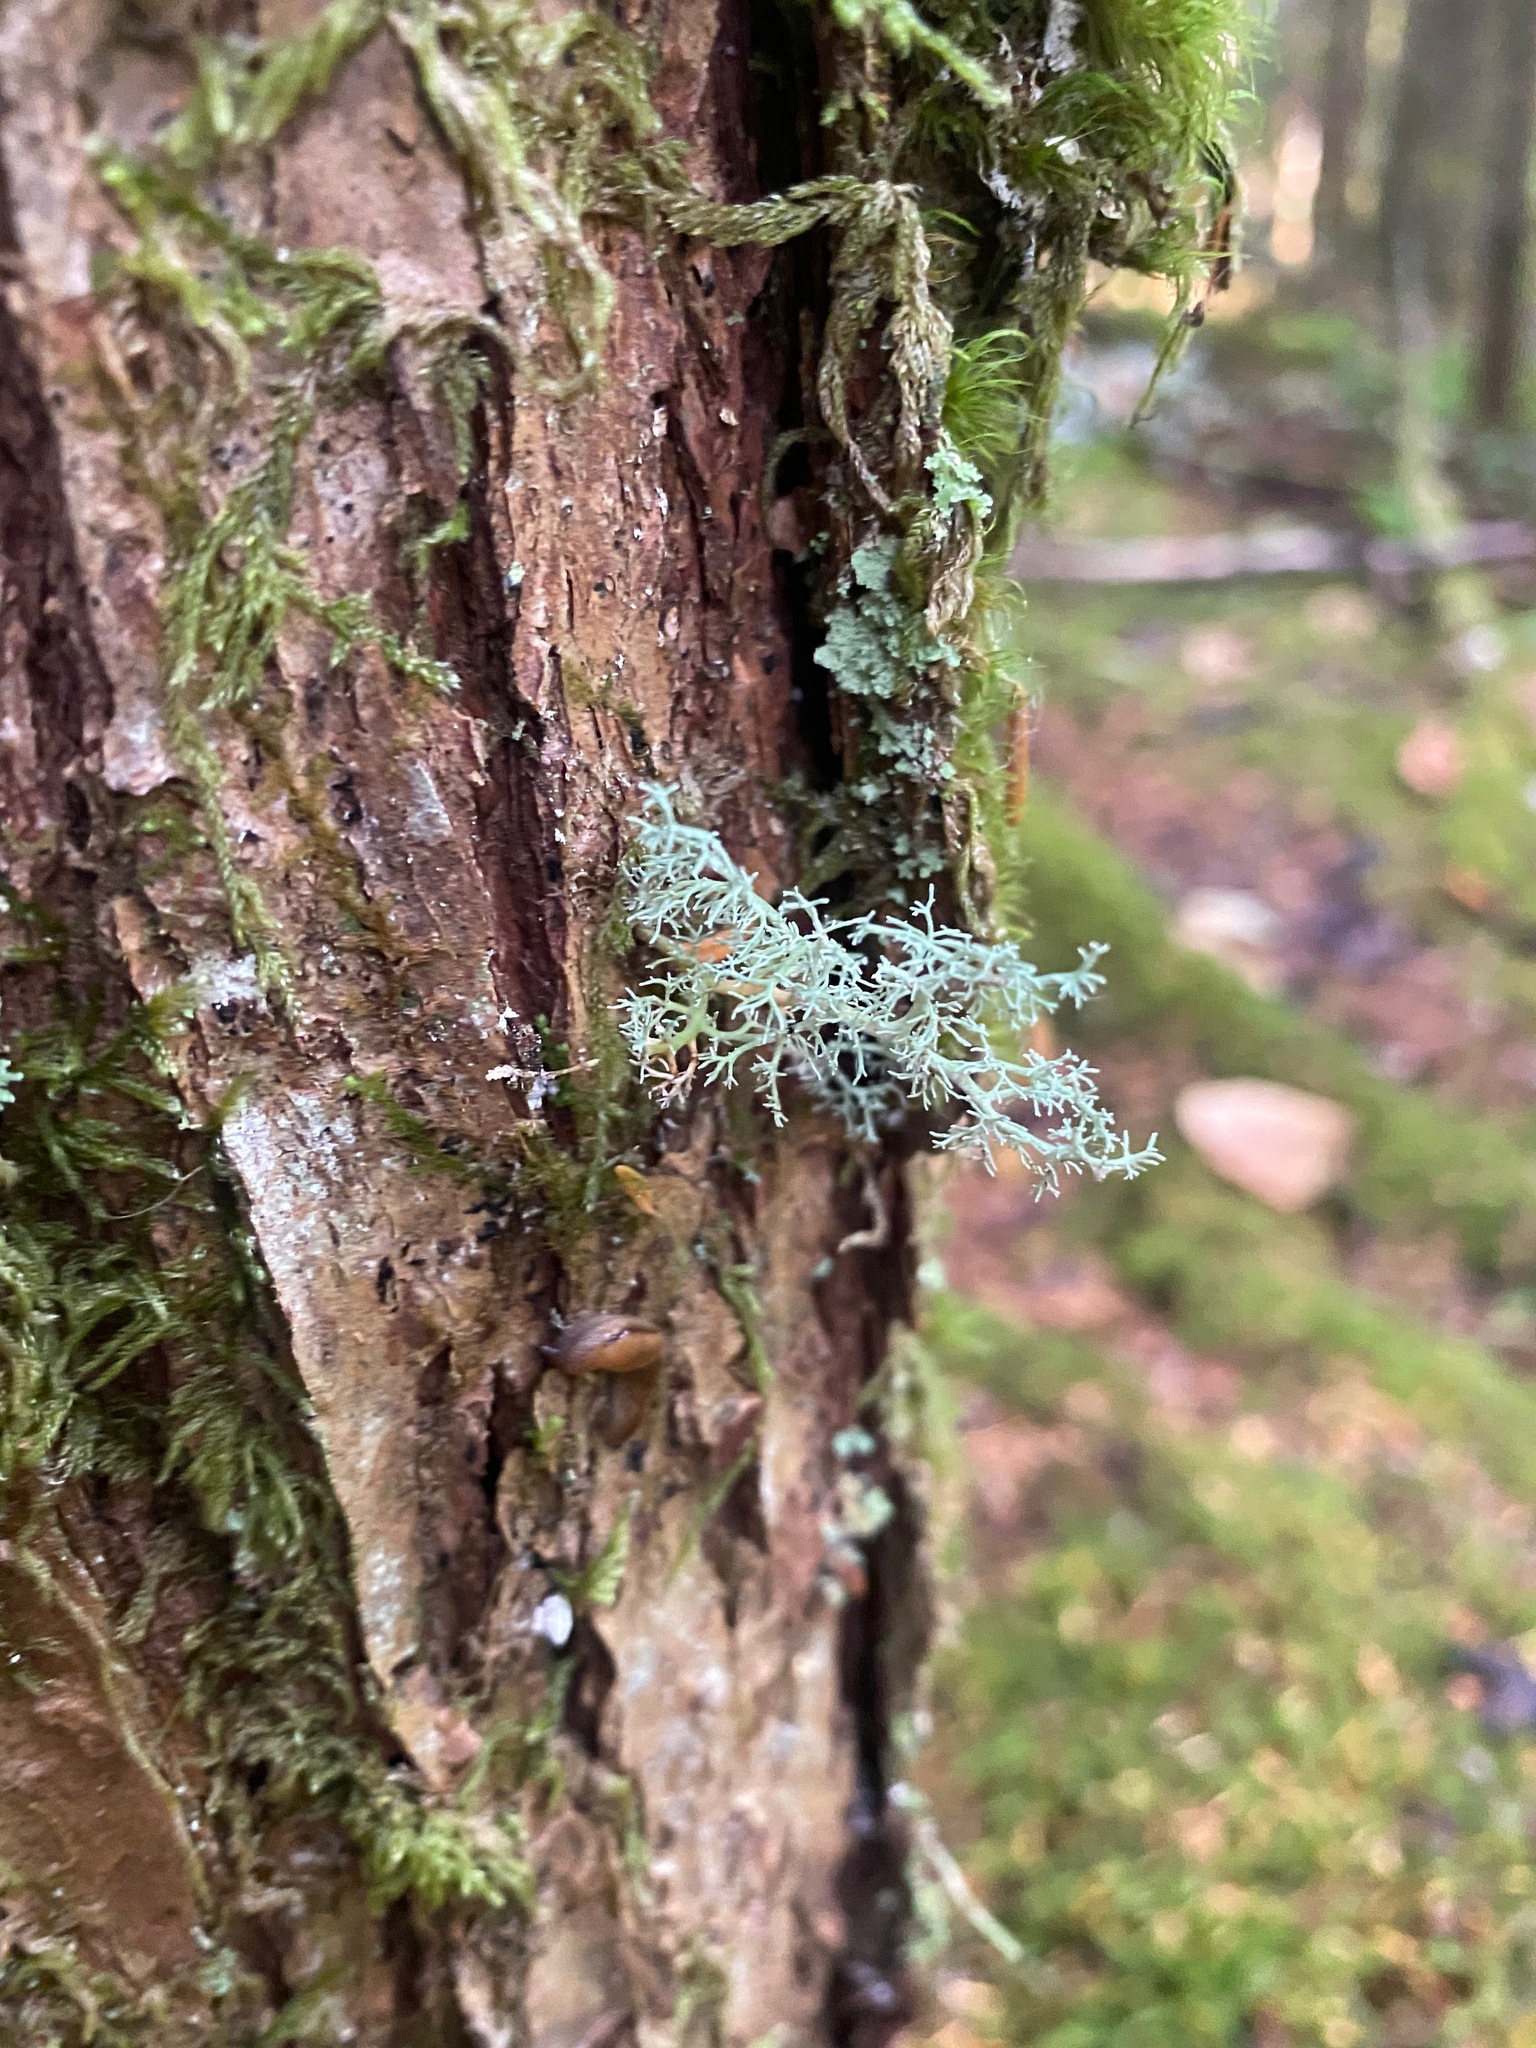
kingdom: Fungi
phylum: Ascomycota
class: Lecanoromycetes
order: Lecanorales
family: Sphaerophoraceae
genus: Sphaerophorus
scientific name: Sphaerophorus globosus
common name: Globe ball lichen
